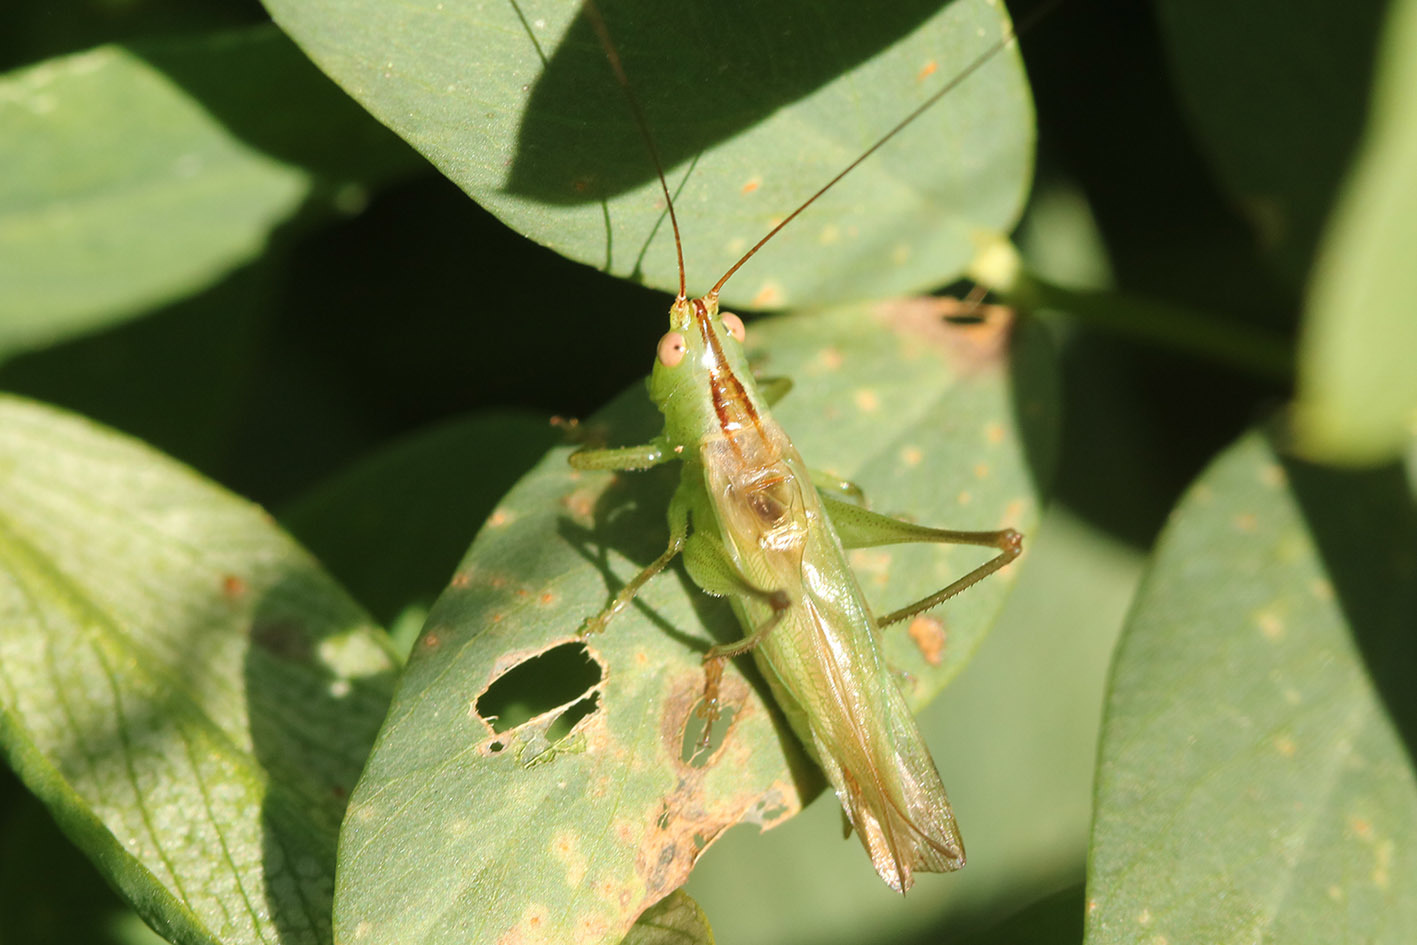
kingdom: Animalia
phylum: Arthropoda
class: Insecta
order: Orthoptera
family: Tettigoniidae
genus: Conocephalus
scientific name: Conocephalus longipes
